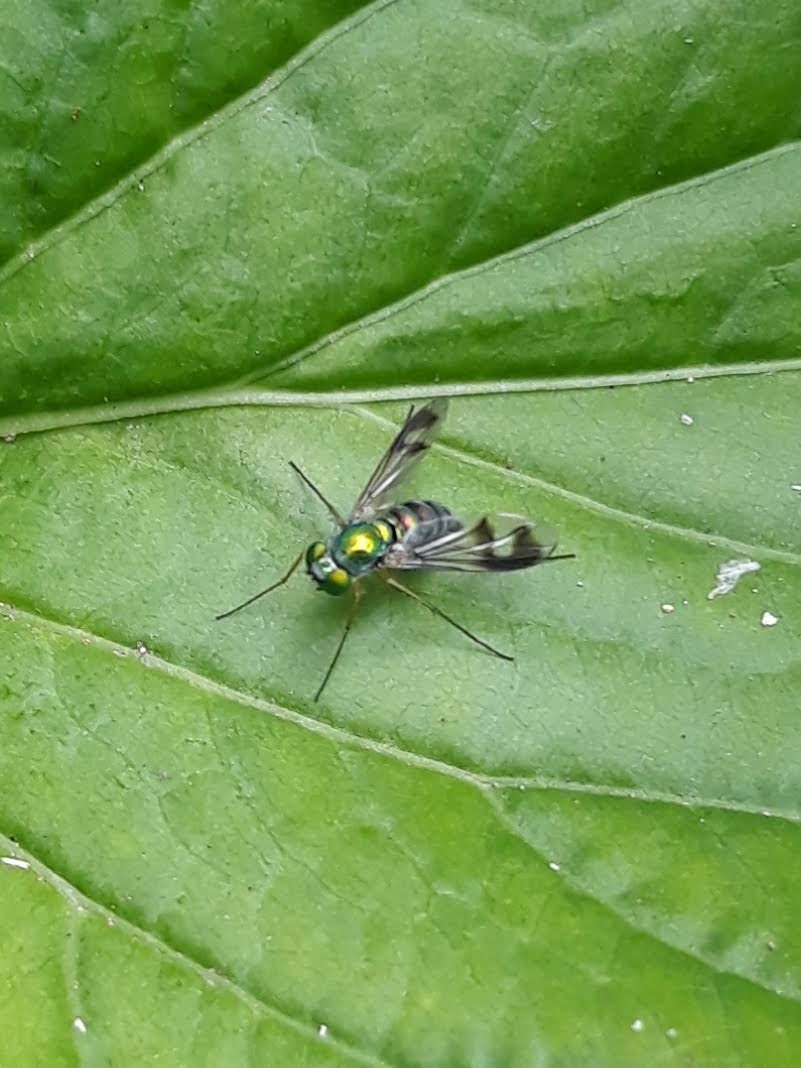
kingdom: Animalia
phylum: Arthropoda
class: Insecta
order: Diptera
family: Dolichopodidae
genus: Condylostylus
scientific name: Condylostylus
